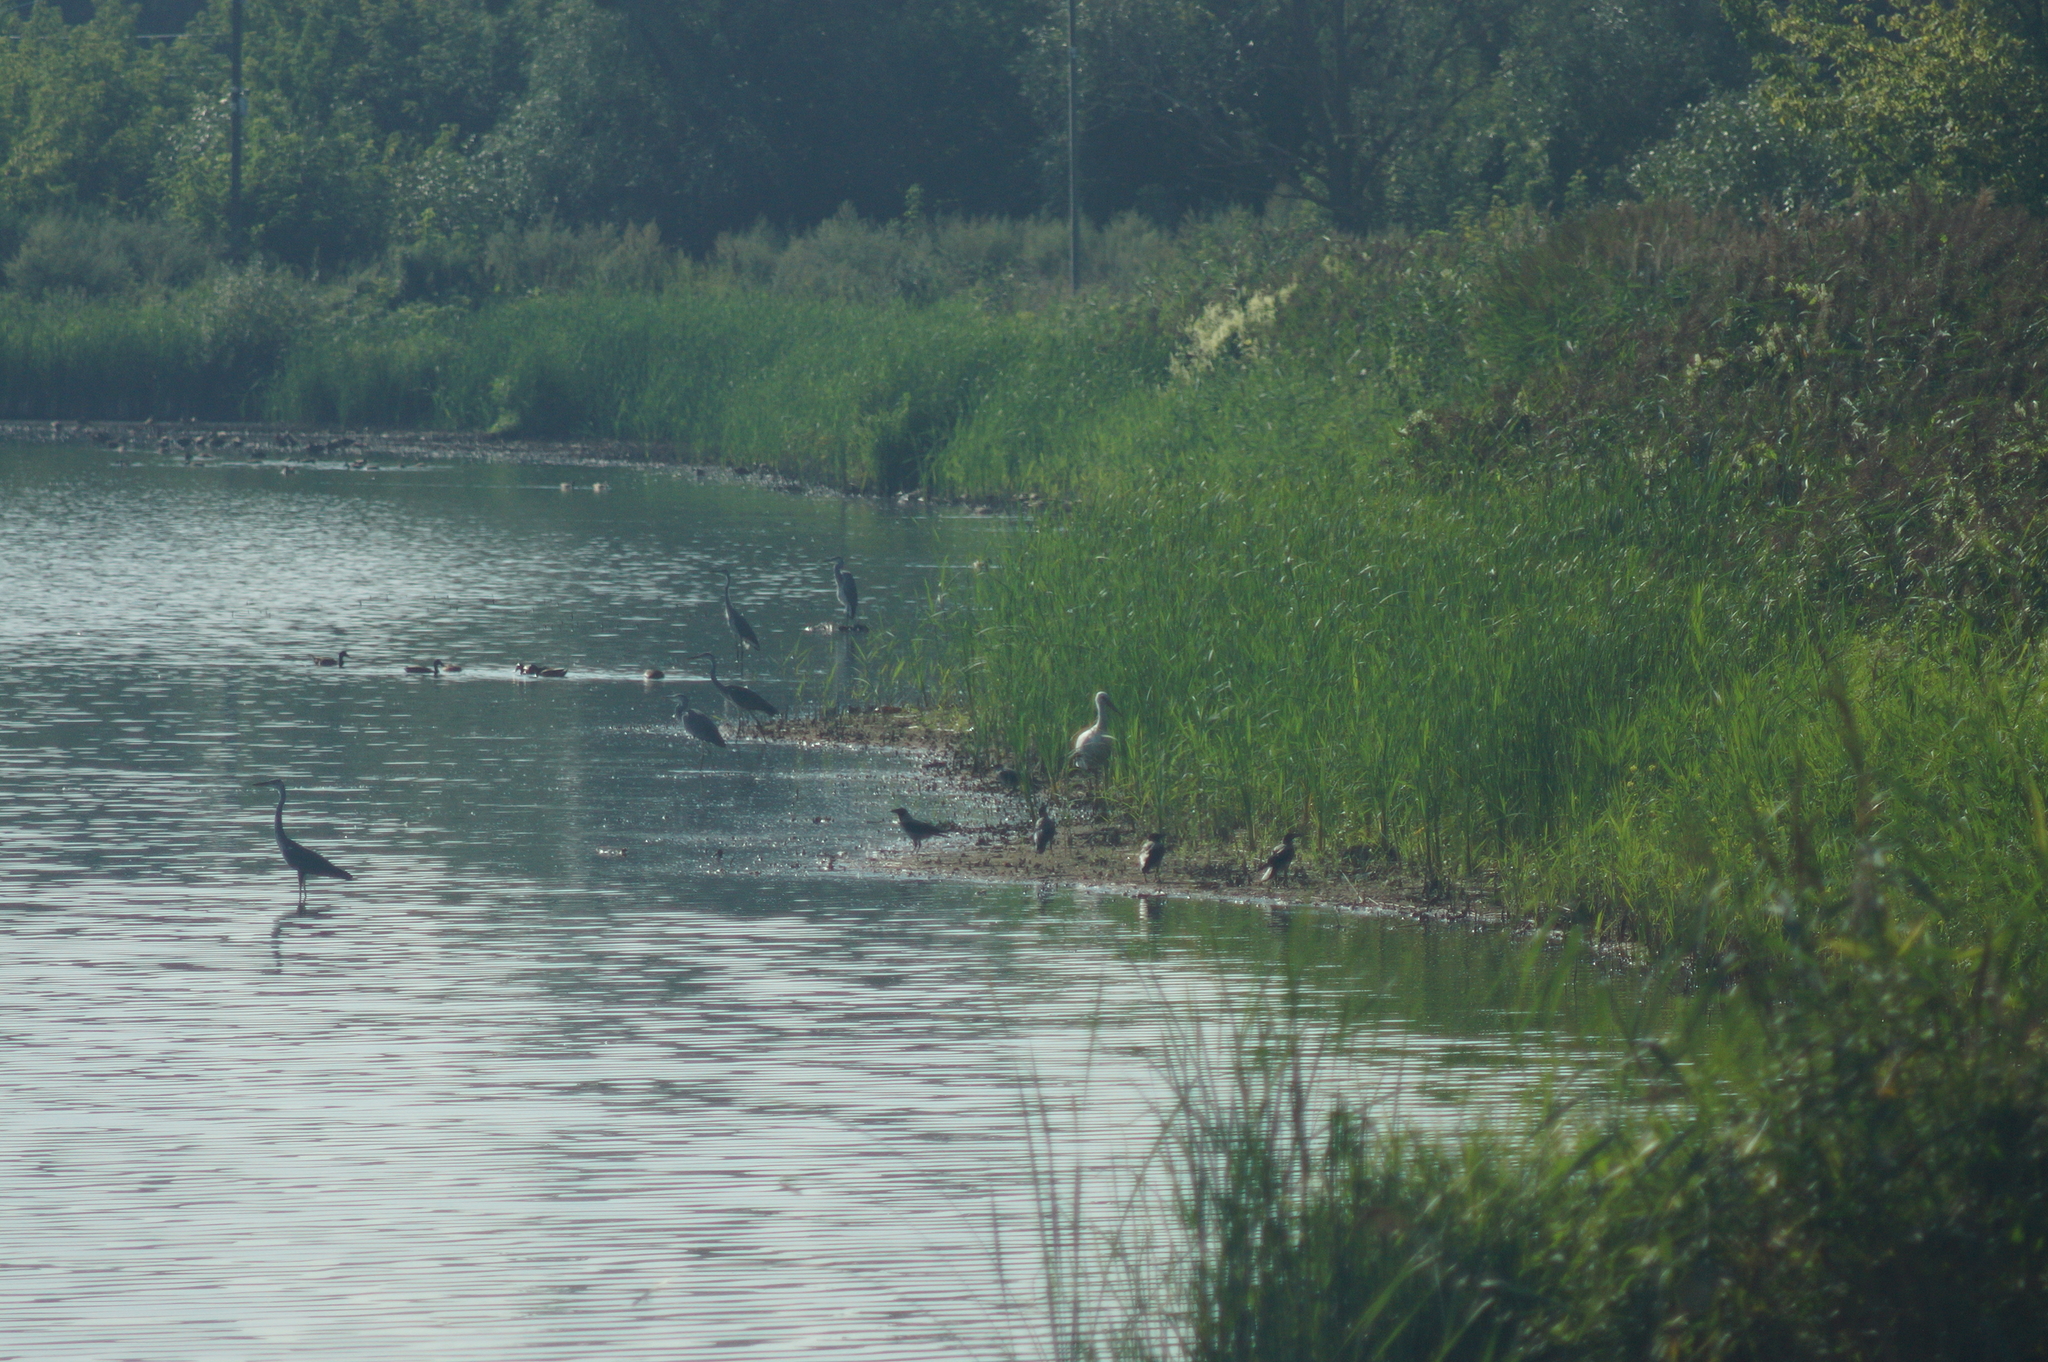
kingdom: Animalia
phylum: Chordata
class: Aves
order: Ciconiiformes
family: Ciconiidae
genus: Ciconia
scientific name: Ciconia ciconia
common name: White stork
